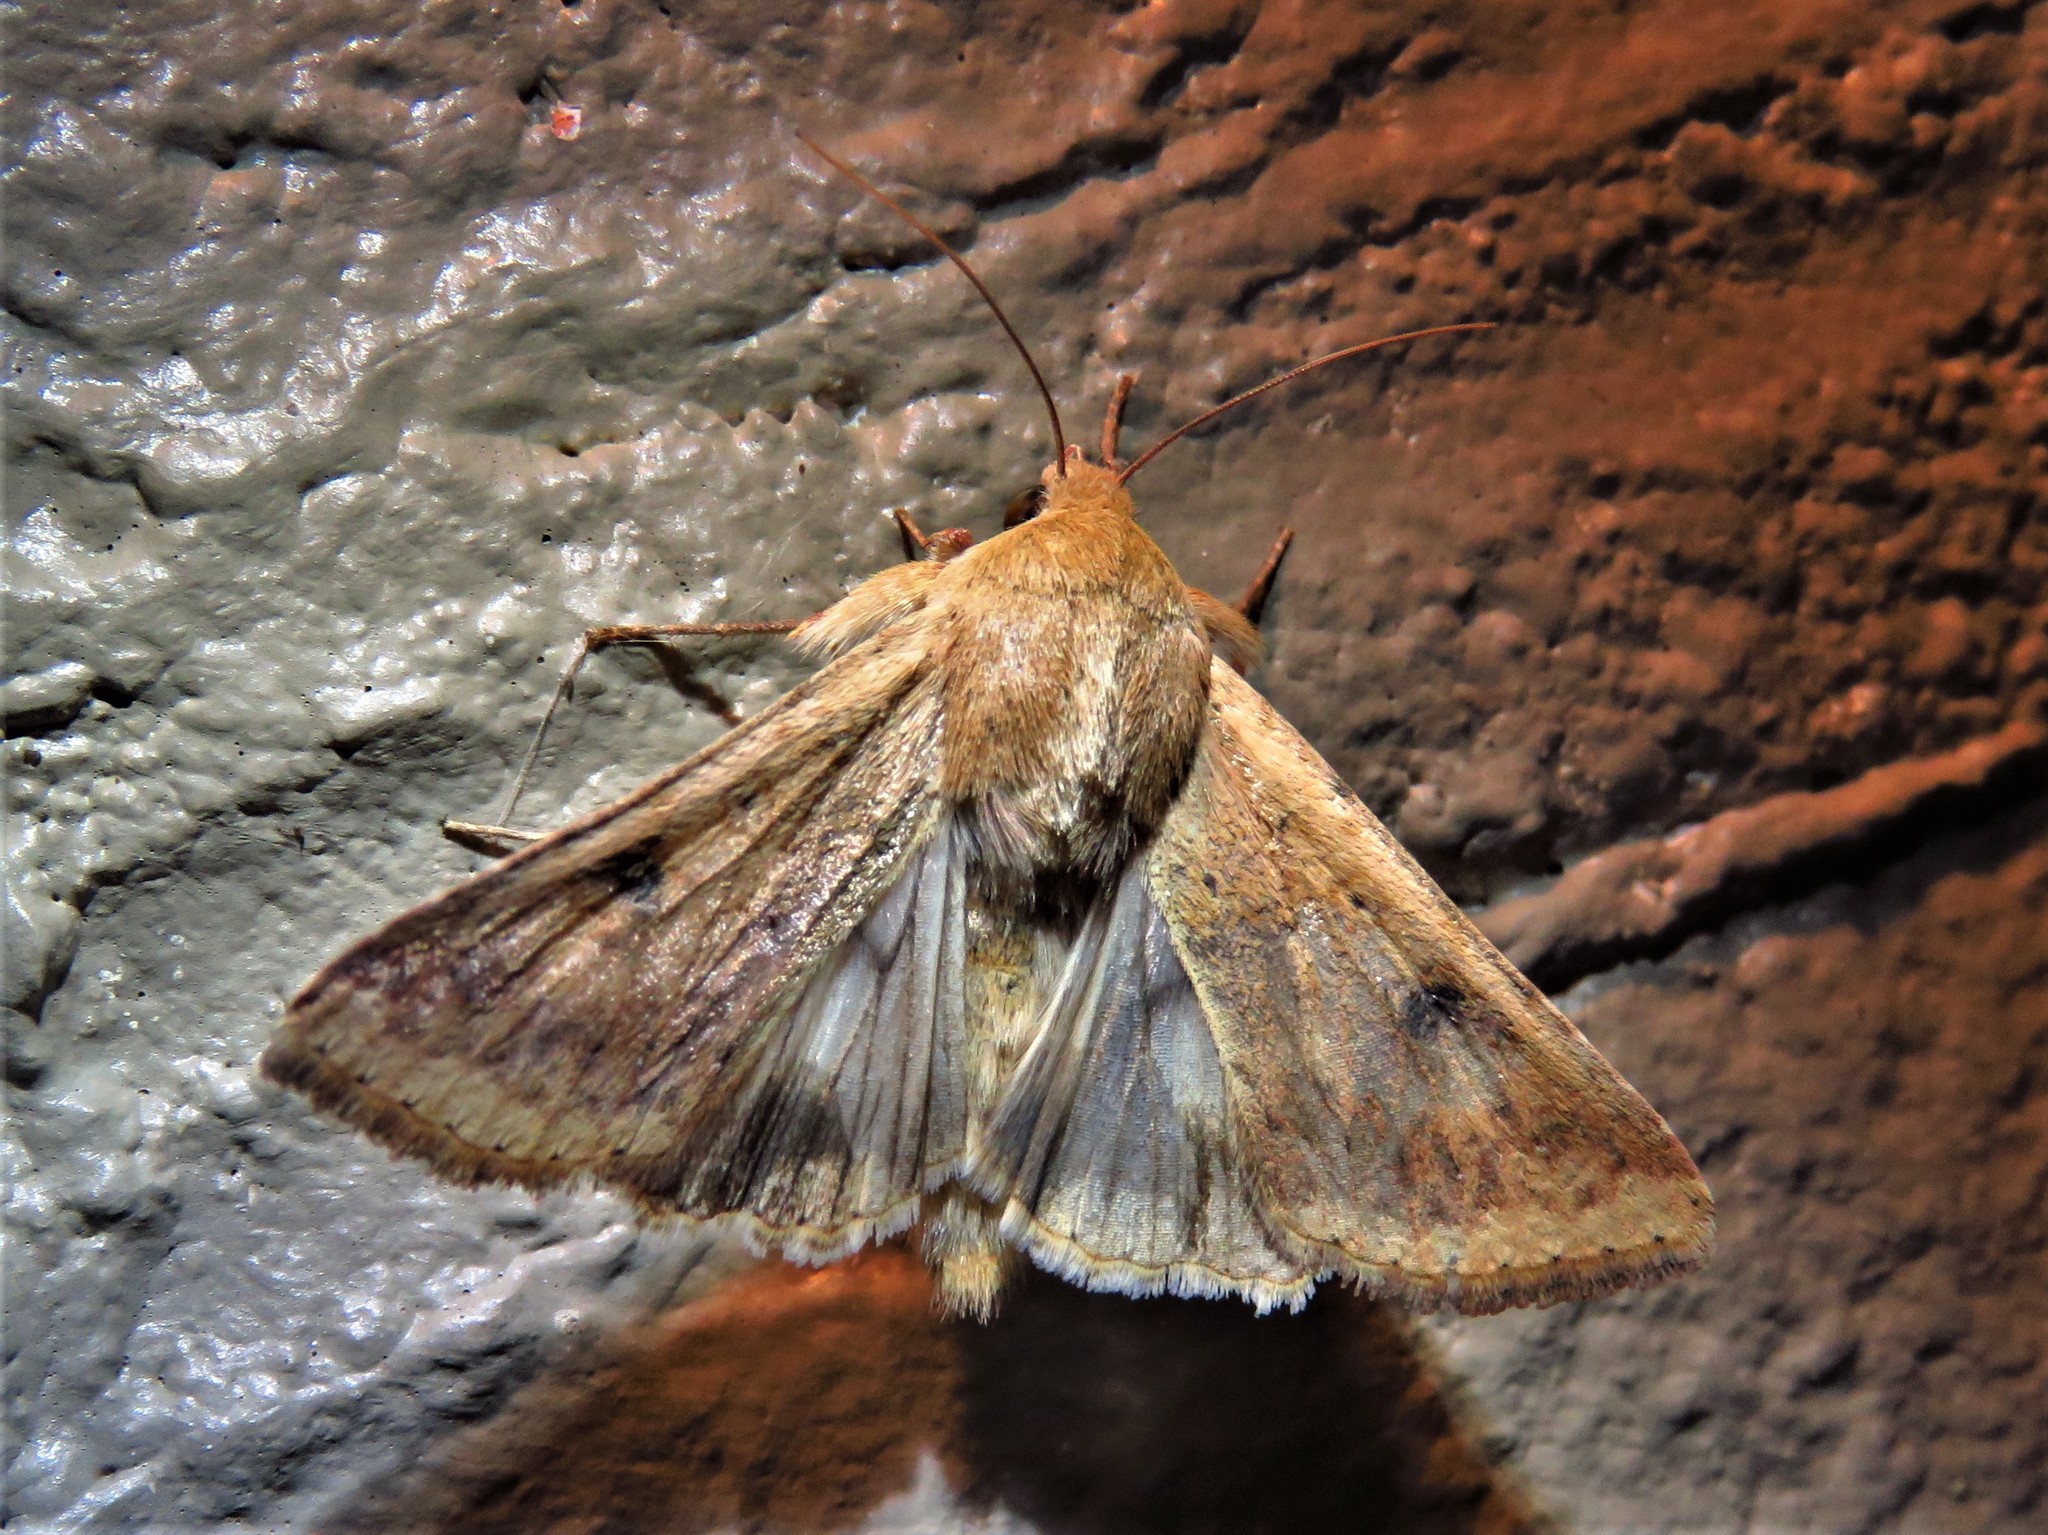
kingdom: Animalia
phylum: Arthropoda
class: Insecta
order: Lepidoptera
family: Noctuidae
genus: Helicoverpa
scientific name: Helicoverpa zea
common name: Bollworm
